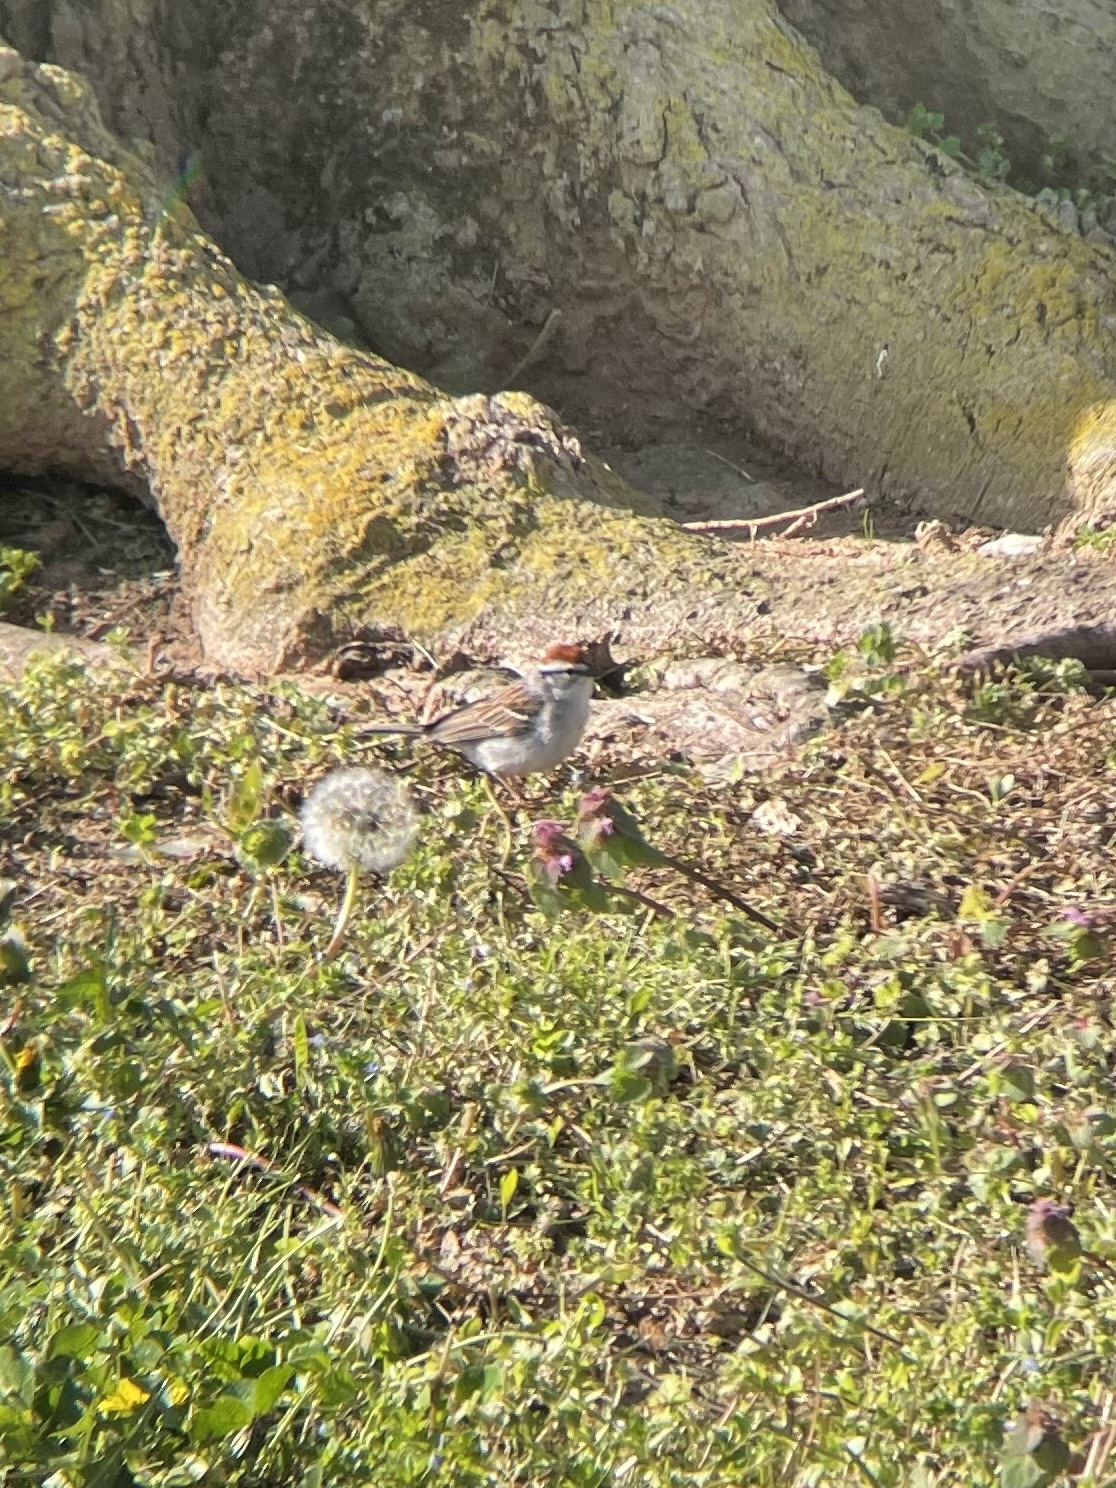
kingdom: Animalia
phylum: Chordata
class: Aves
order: Passeriformes
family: Passerellidae
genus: Spizella
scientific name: Spizella passerina
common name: Chipping sparrow
